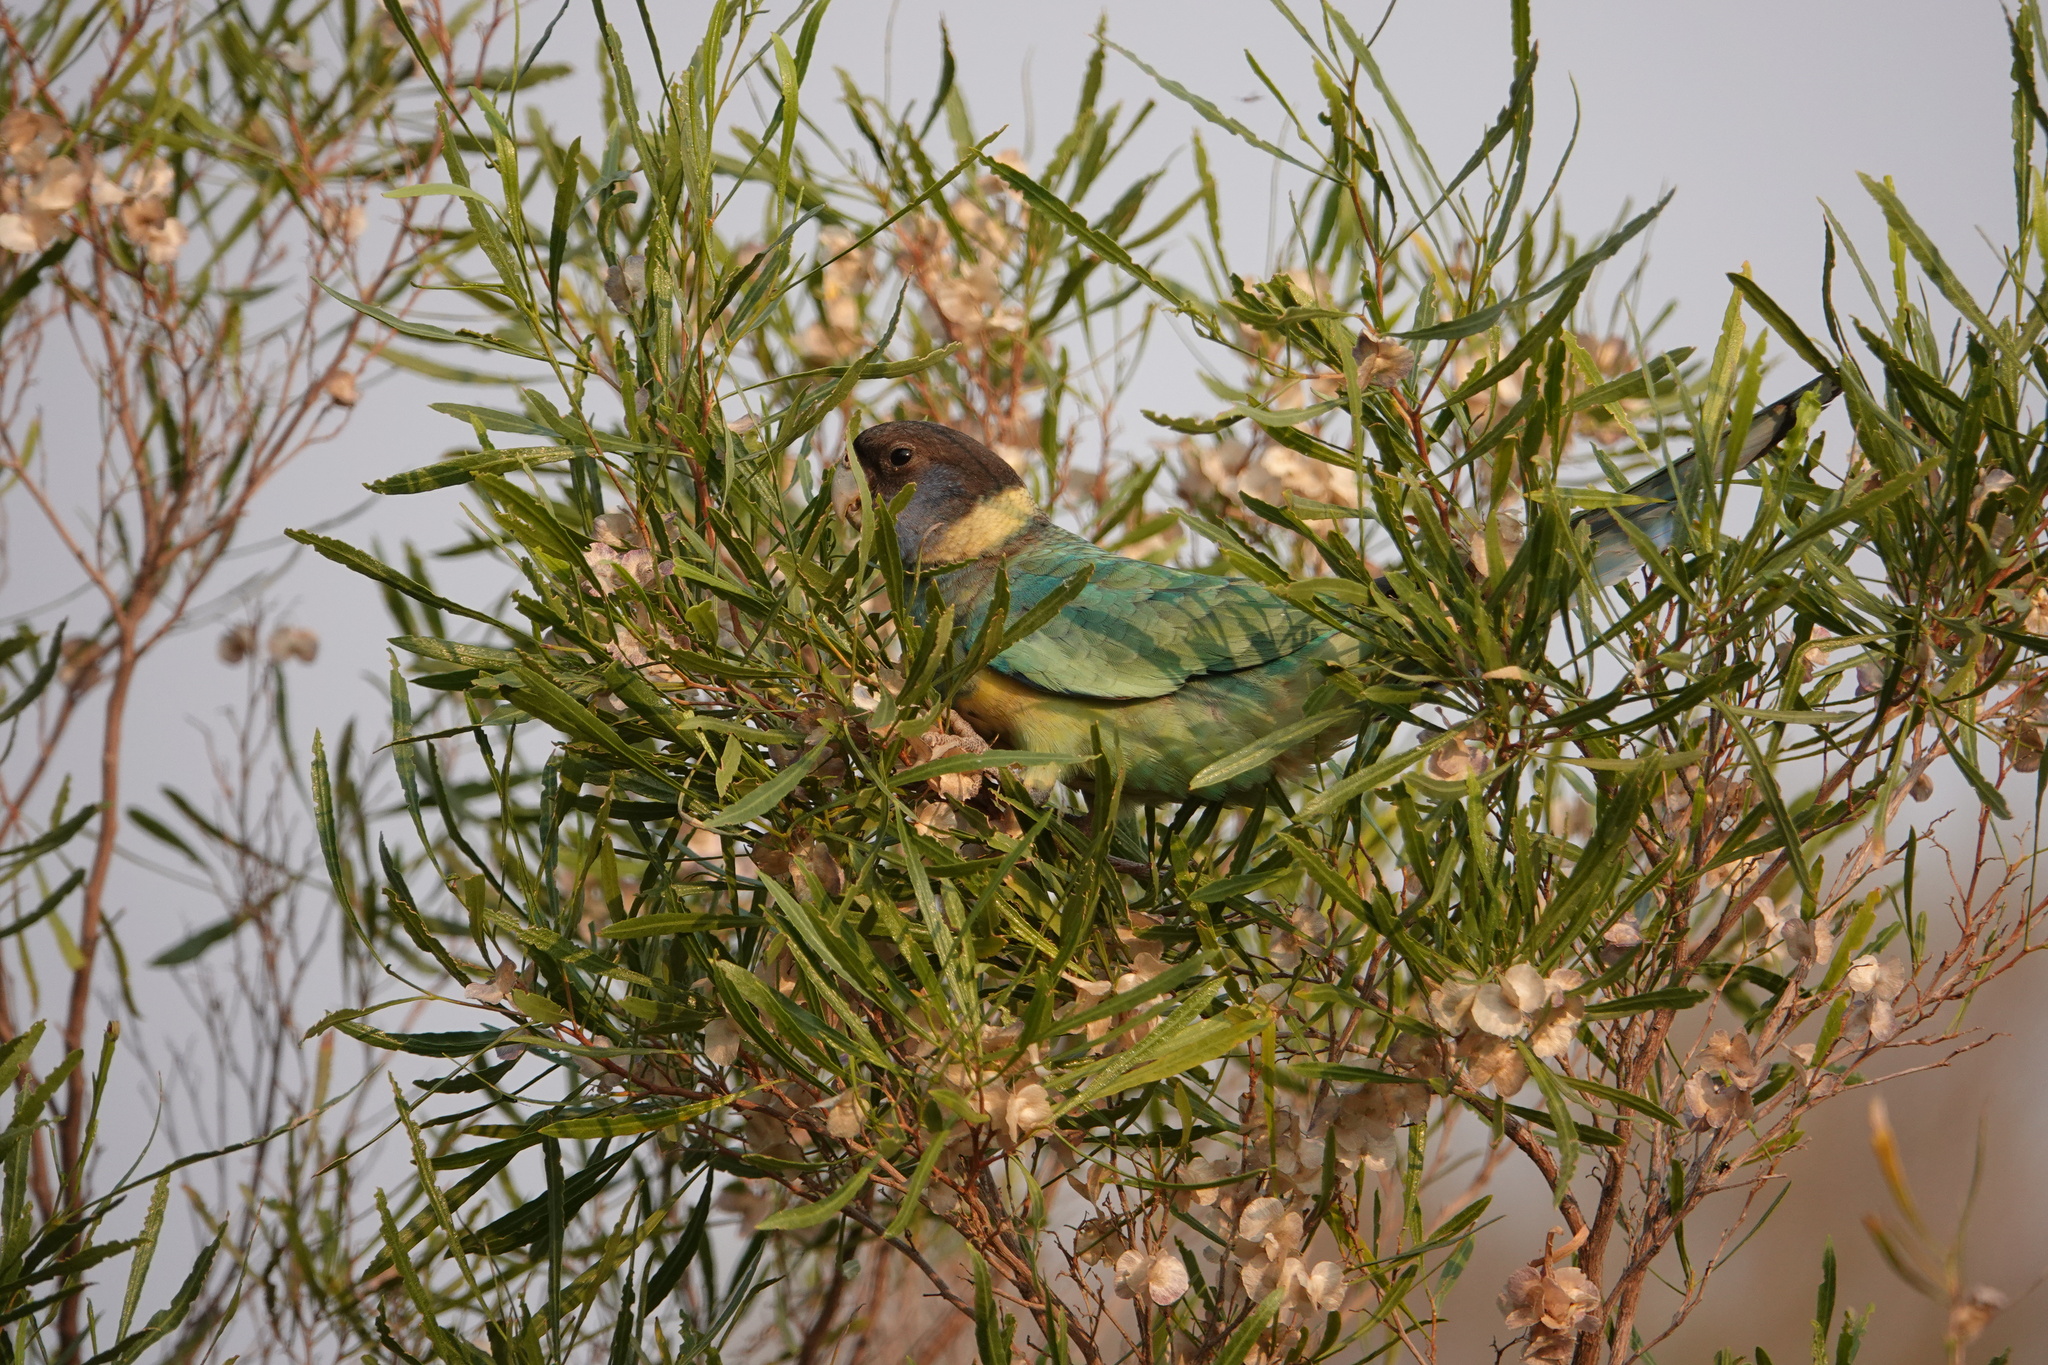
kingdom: Animalia
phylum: Chordata
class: Aves
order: Psittaciformes
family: Psittacidae
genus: Barnardius
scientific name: Barnardius zonarius
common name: Australian ringneck
